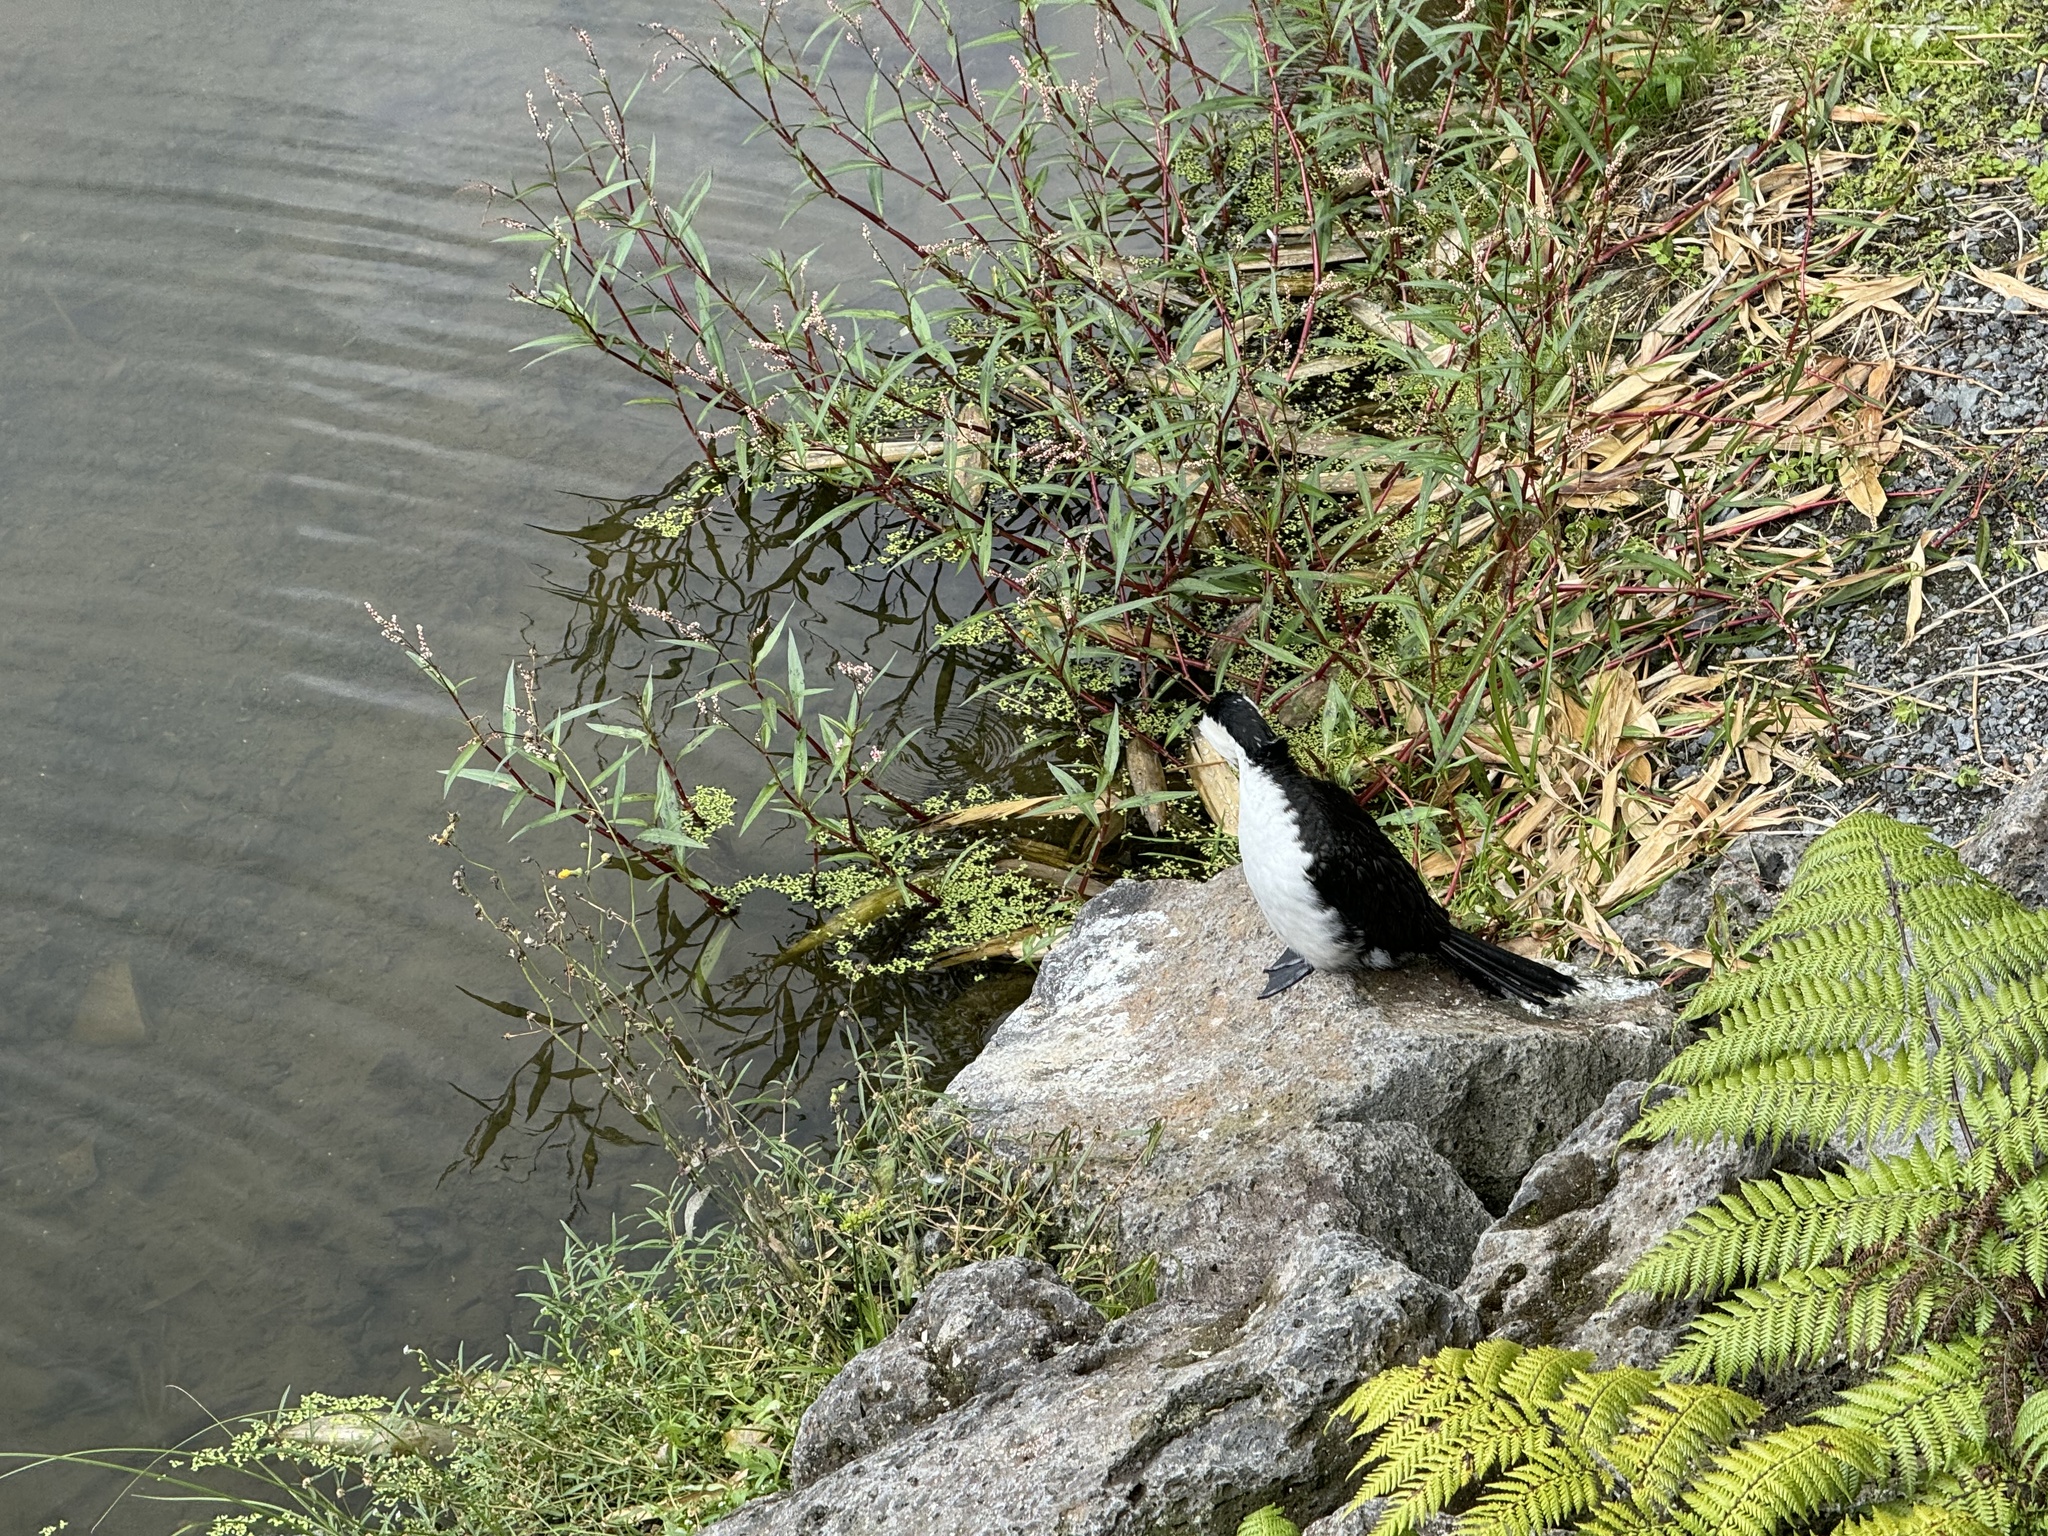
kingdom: Animalia
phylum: Chordata
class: Aves
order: Suliformes
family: Phalacrocoracidae
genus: Microcarbo
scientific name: Microcarbo melanoleucos
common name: Little pied cormorant
